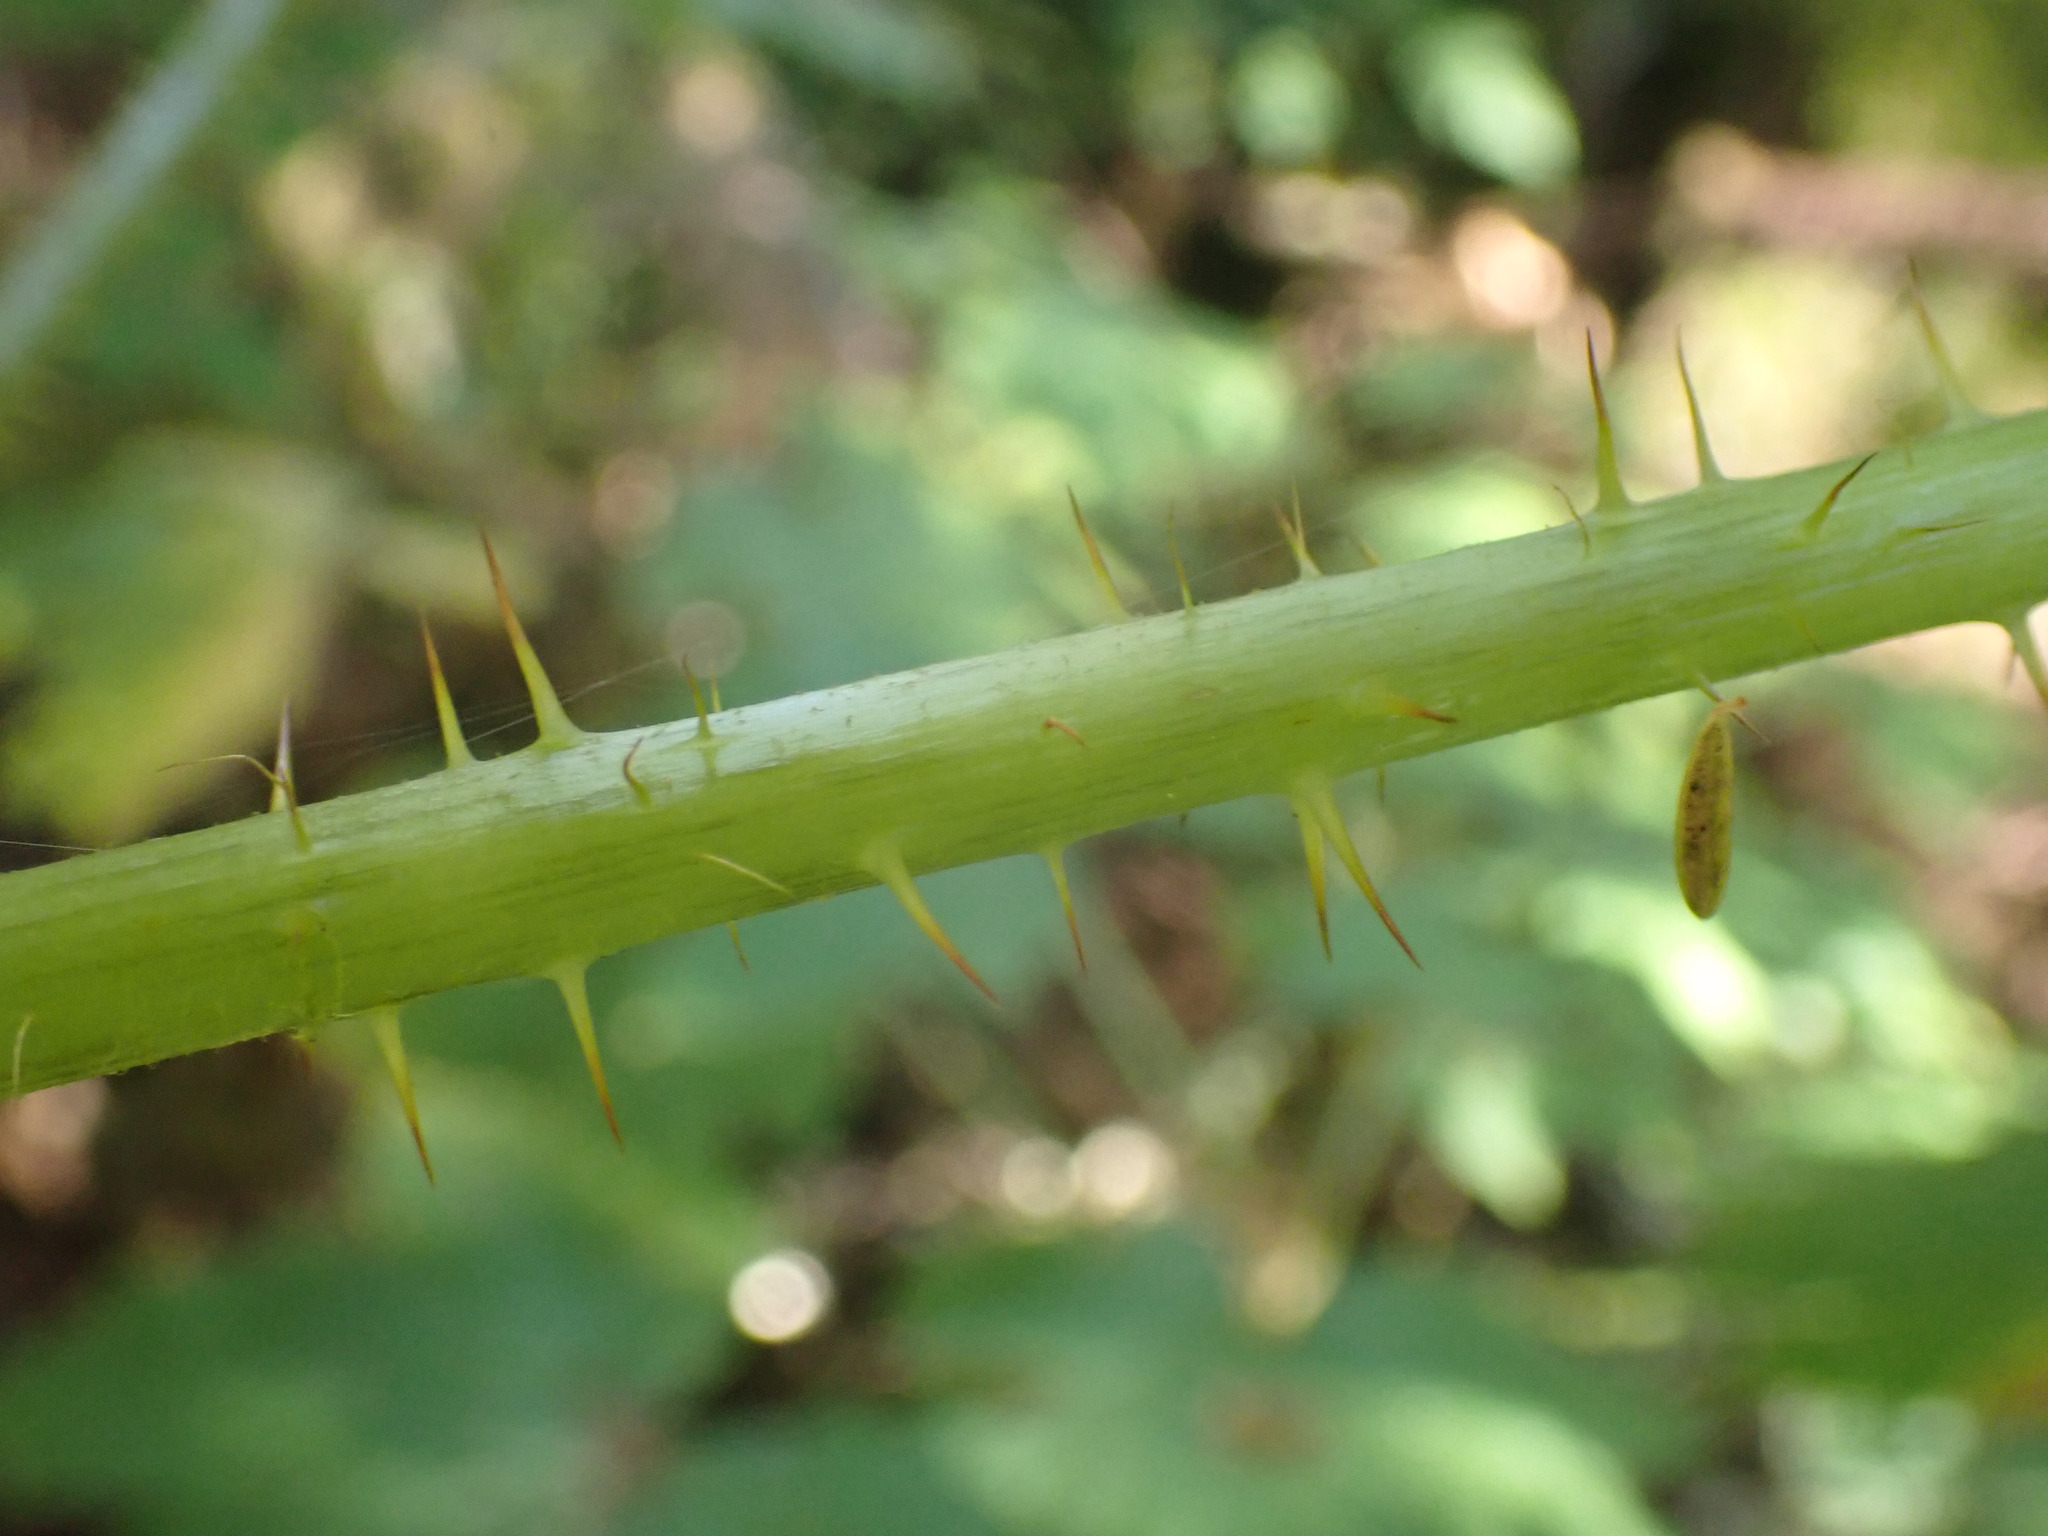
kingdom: Plantae
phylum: Tracheophyta
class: Magnoliopsida
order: Apiales
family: Araliaceae
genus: Oplopanax
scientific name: Oplopanax horridus
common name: Devil's walking-stick
